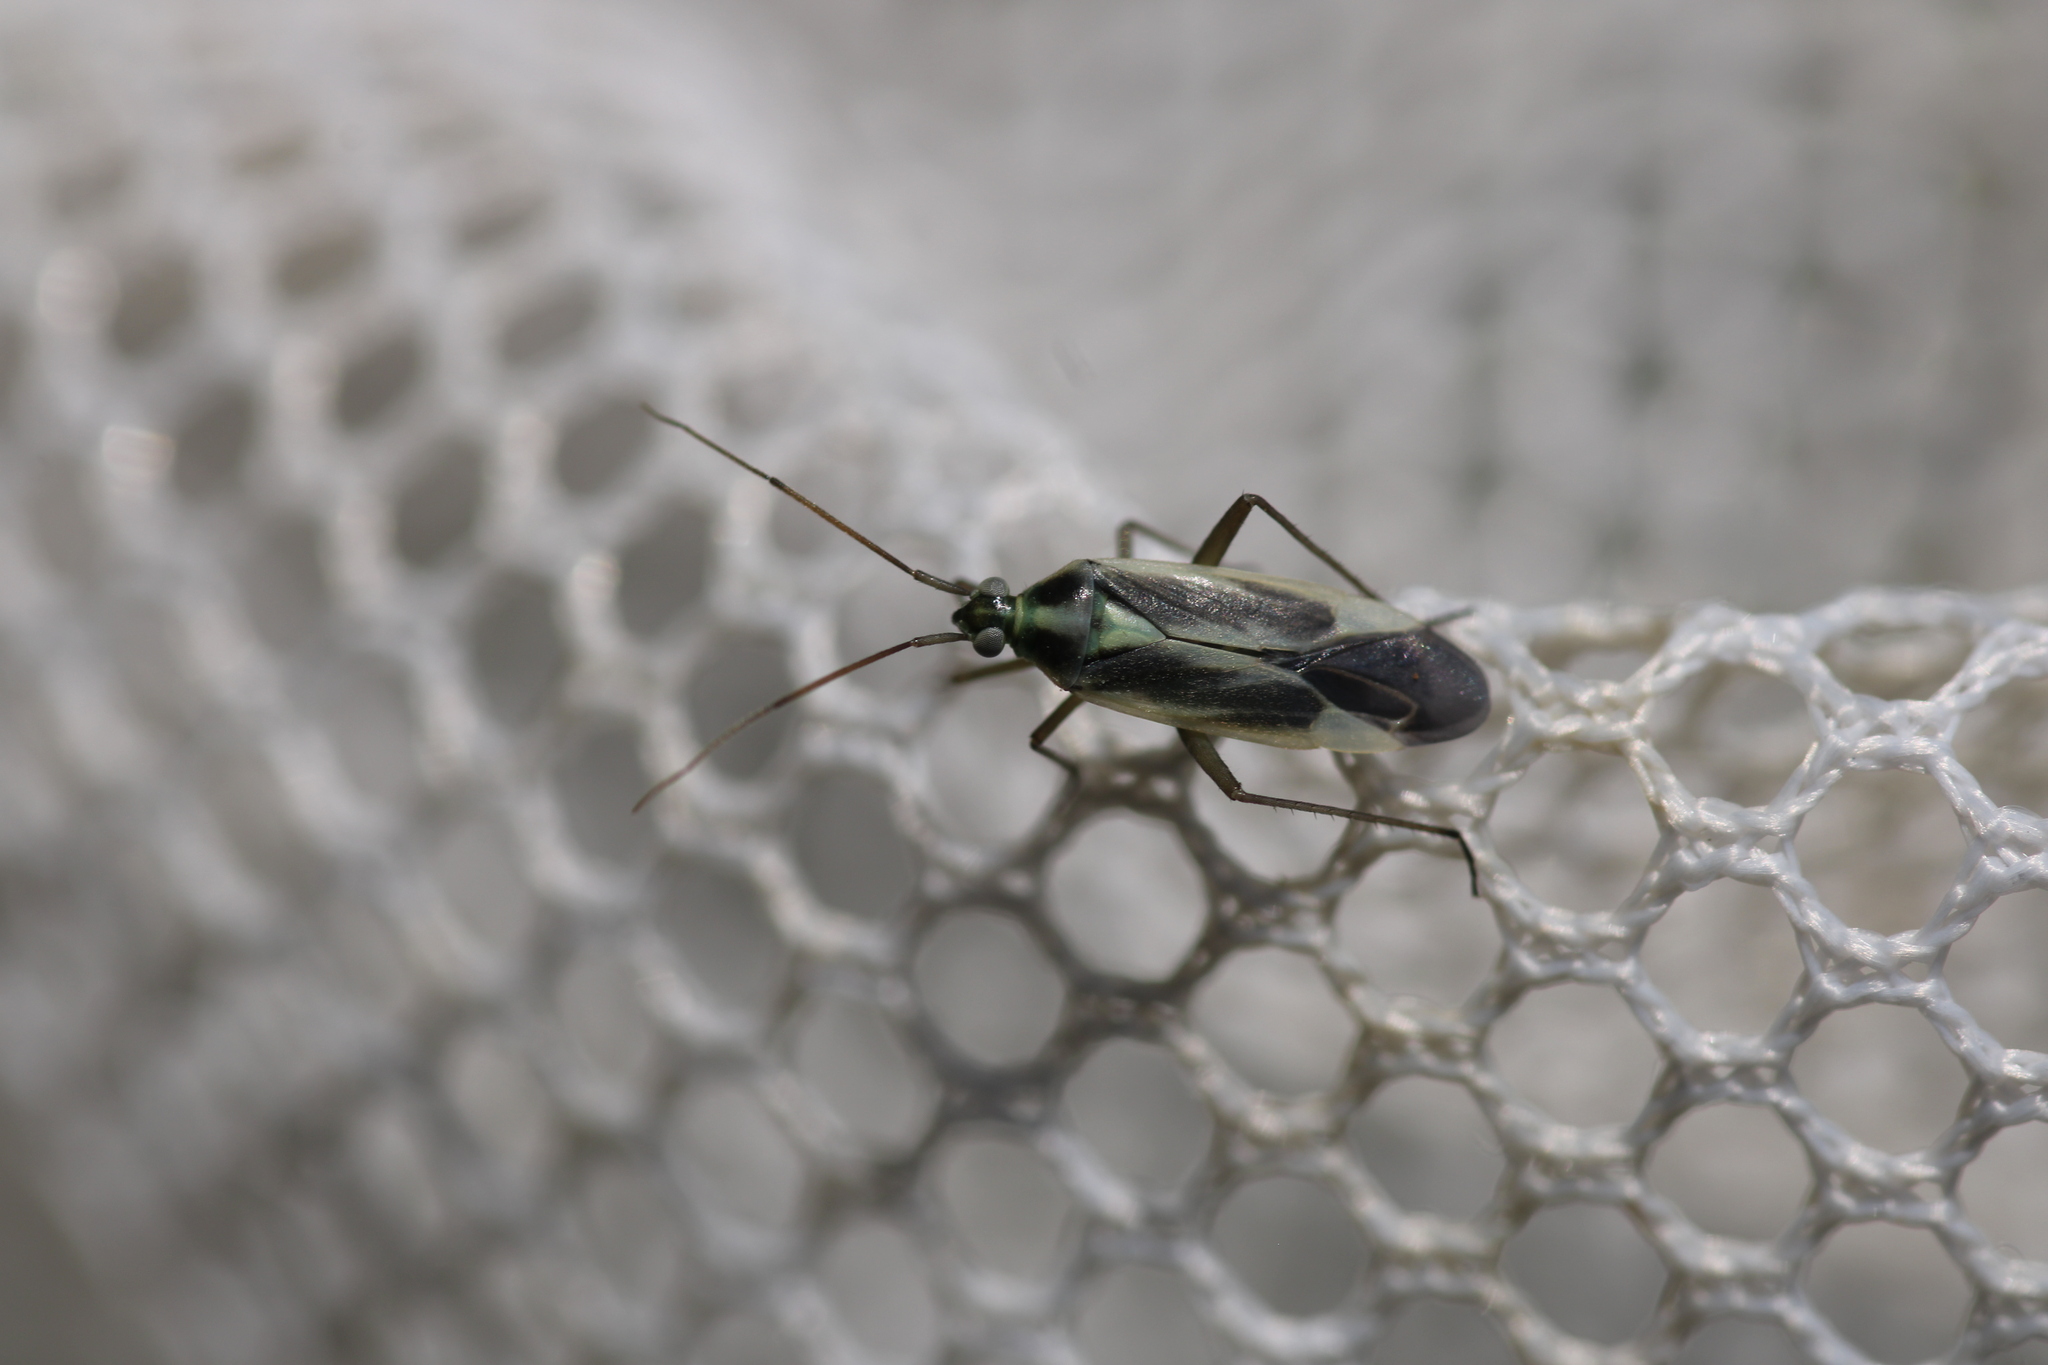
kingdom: Animalia
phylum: Arthropoda
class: Insecta
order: Hemiptera
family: Miridae
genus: Stenotus
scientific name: Stenotus binotatus
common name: Plant bug
